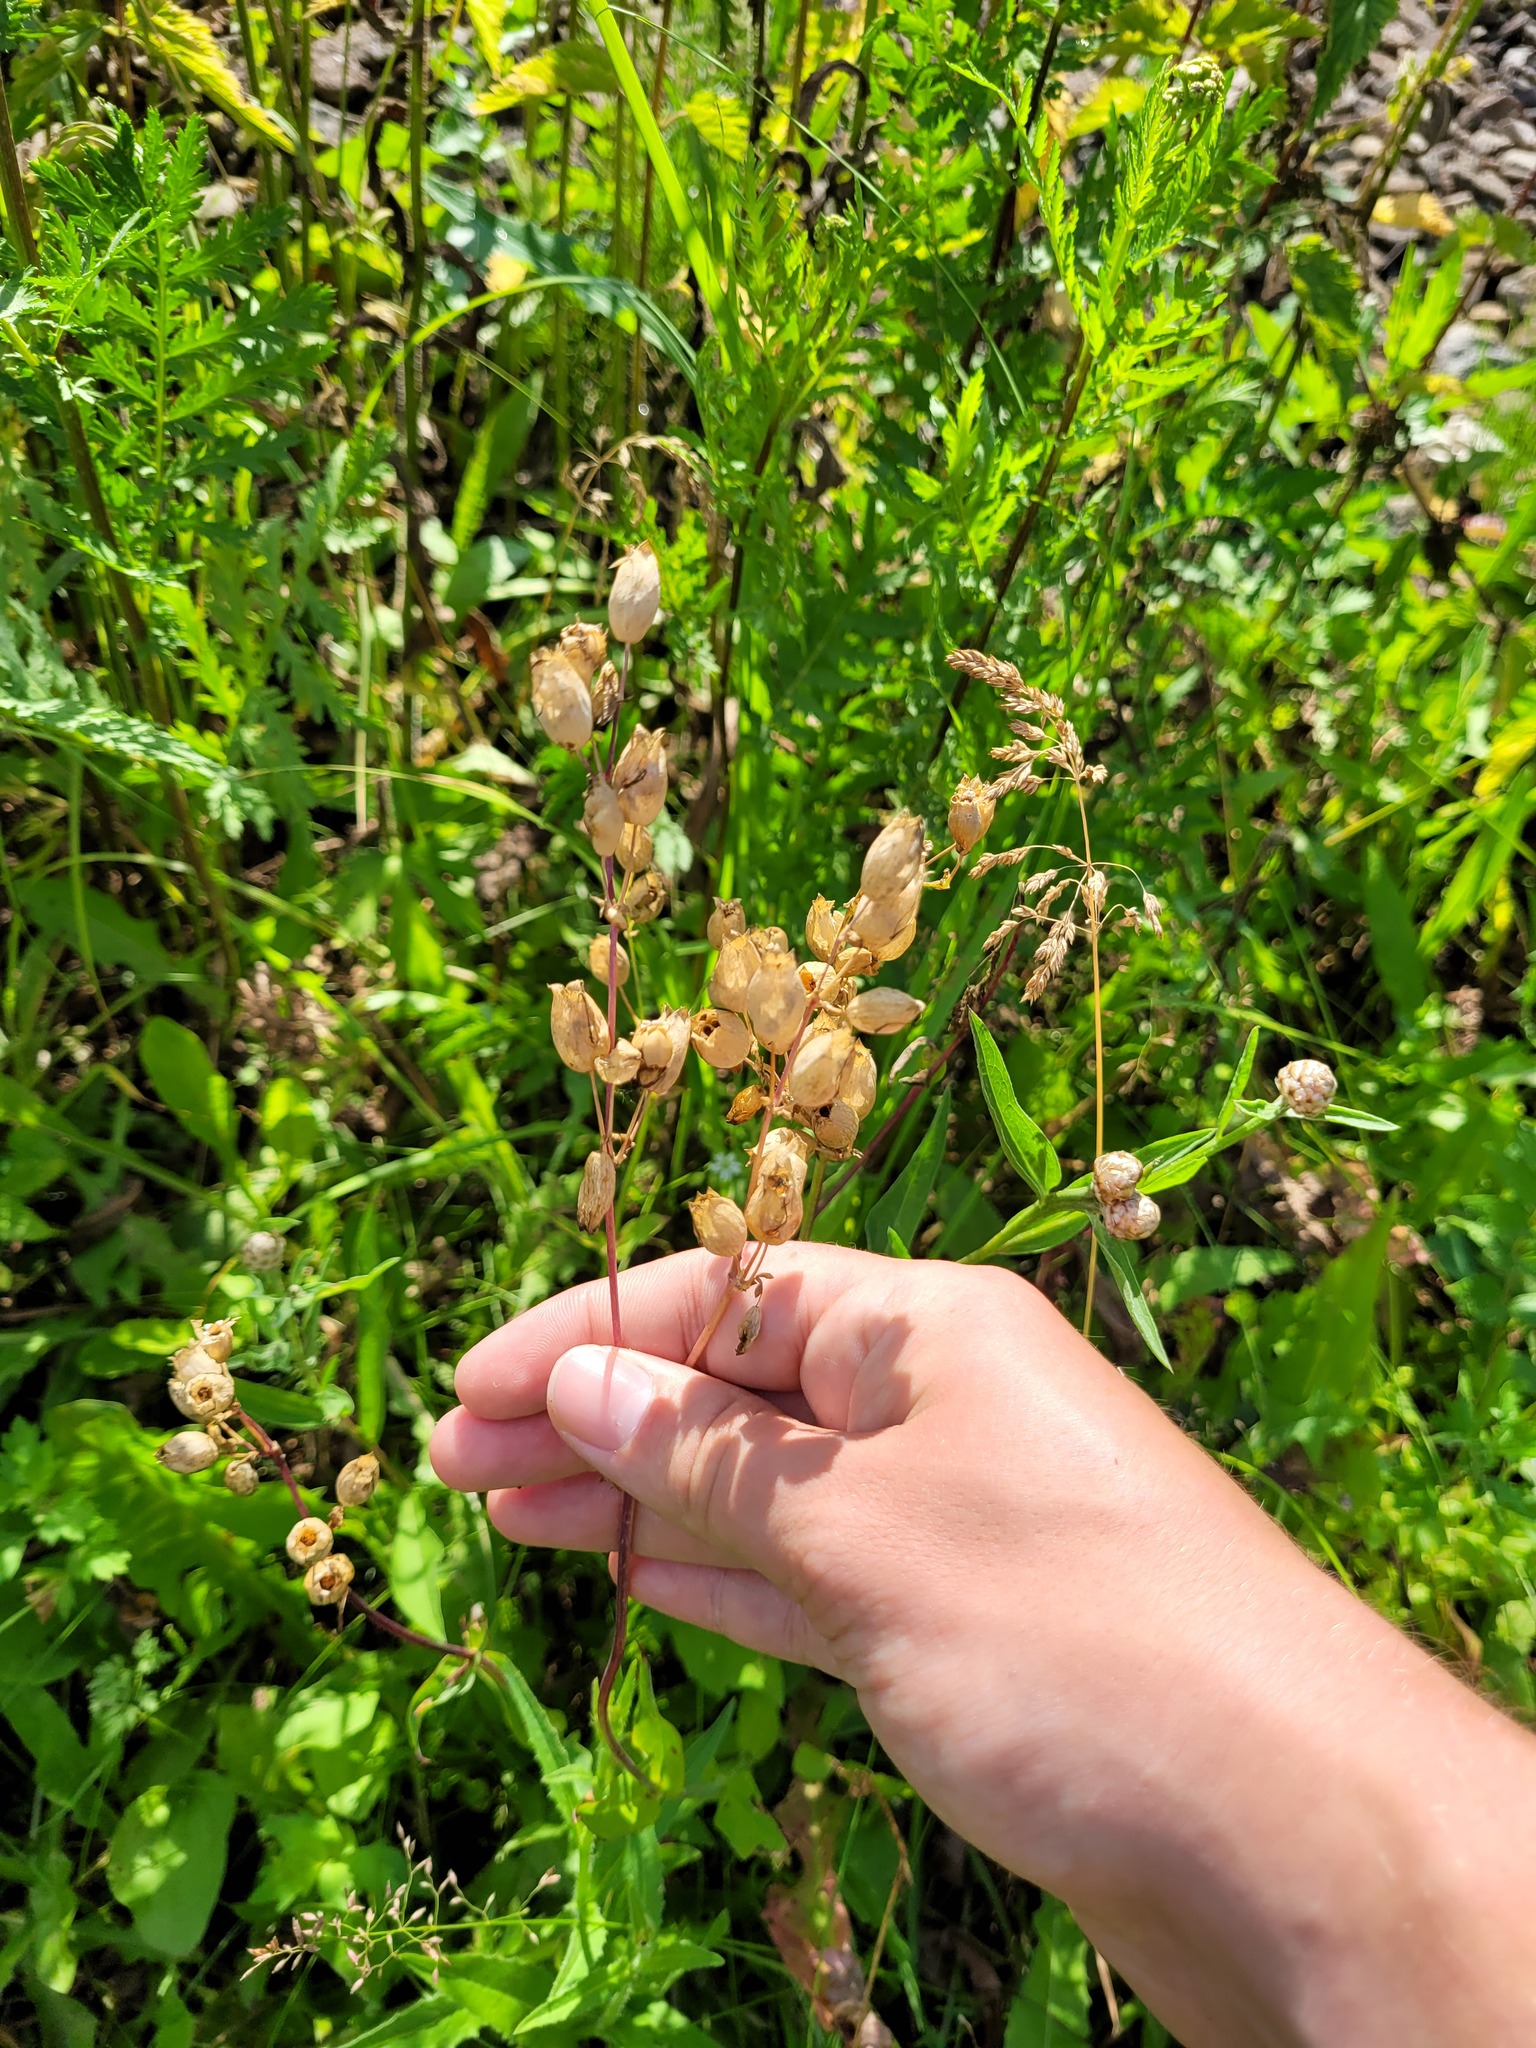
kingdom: Plantae
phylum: Tracheophyta
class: Magnoliopsida
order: Caryophyllales
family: Caryophyllaceae
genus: Silene
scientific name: Silene vulgaris
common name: Bladder campion
